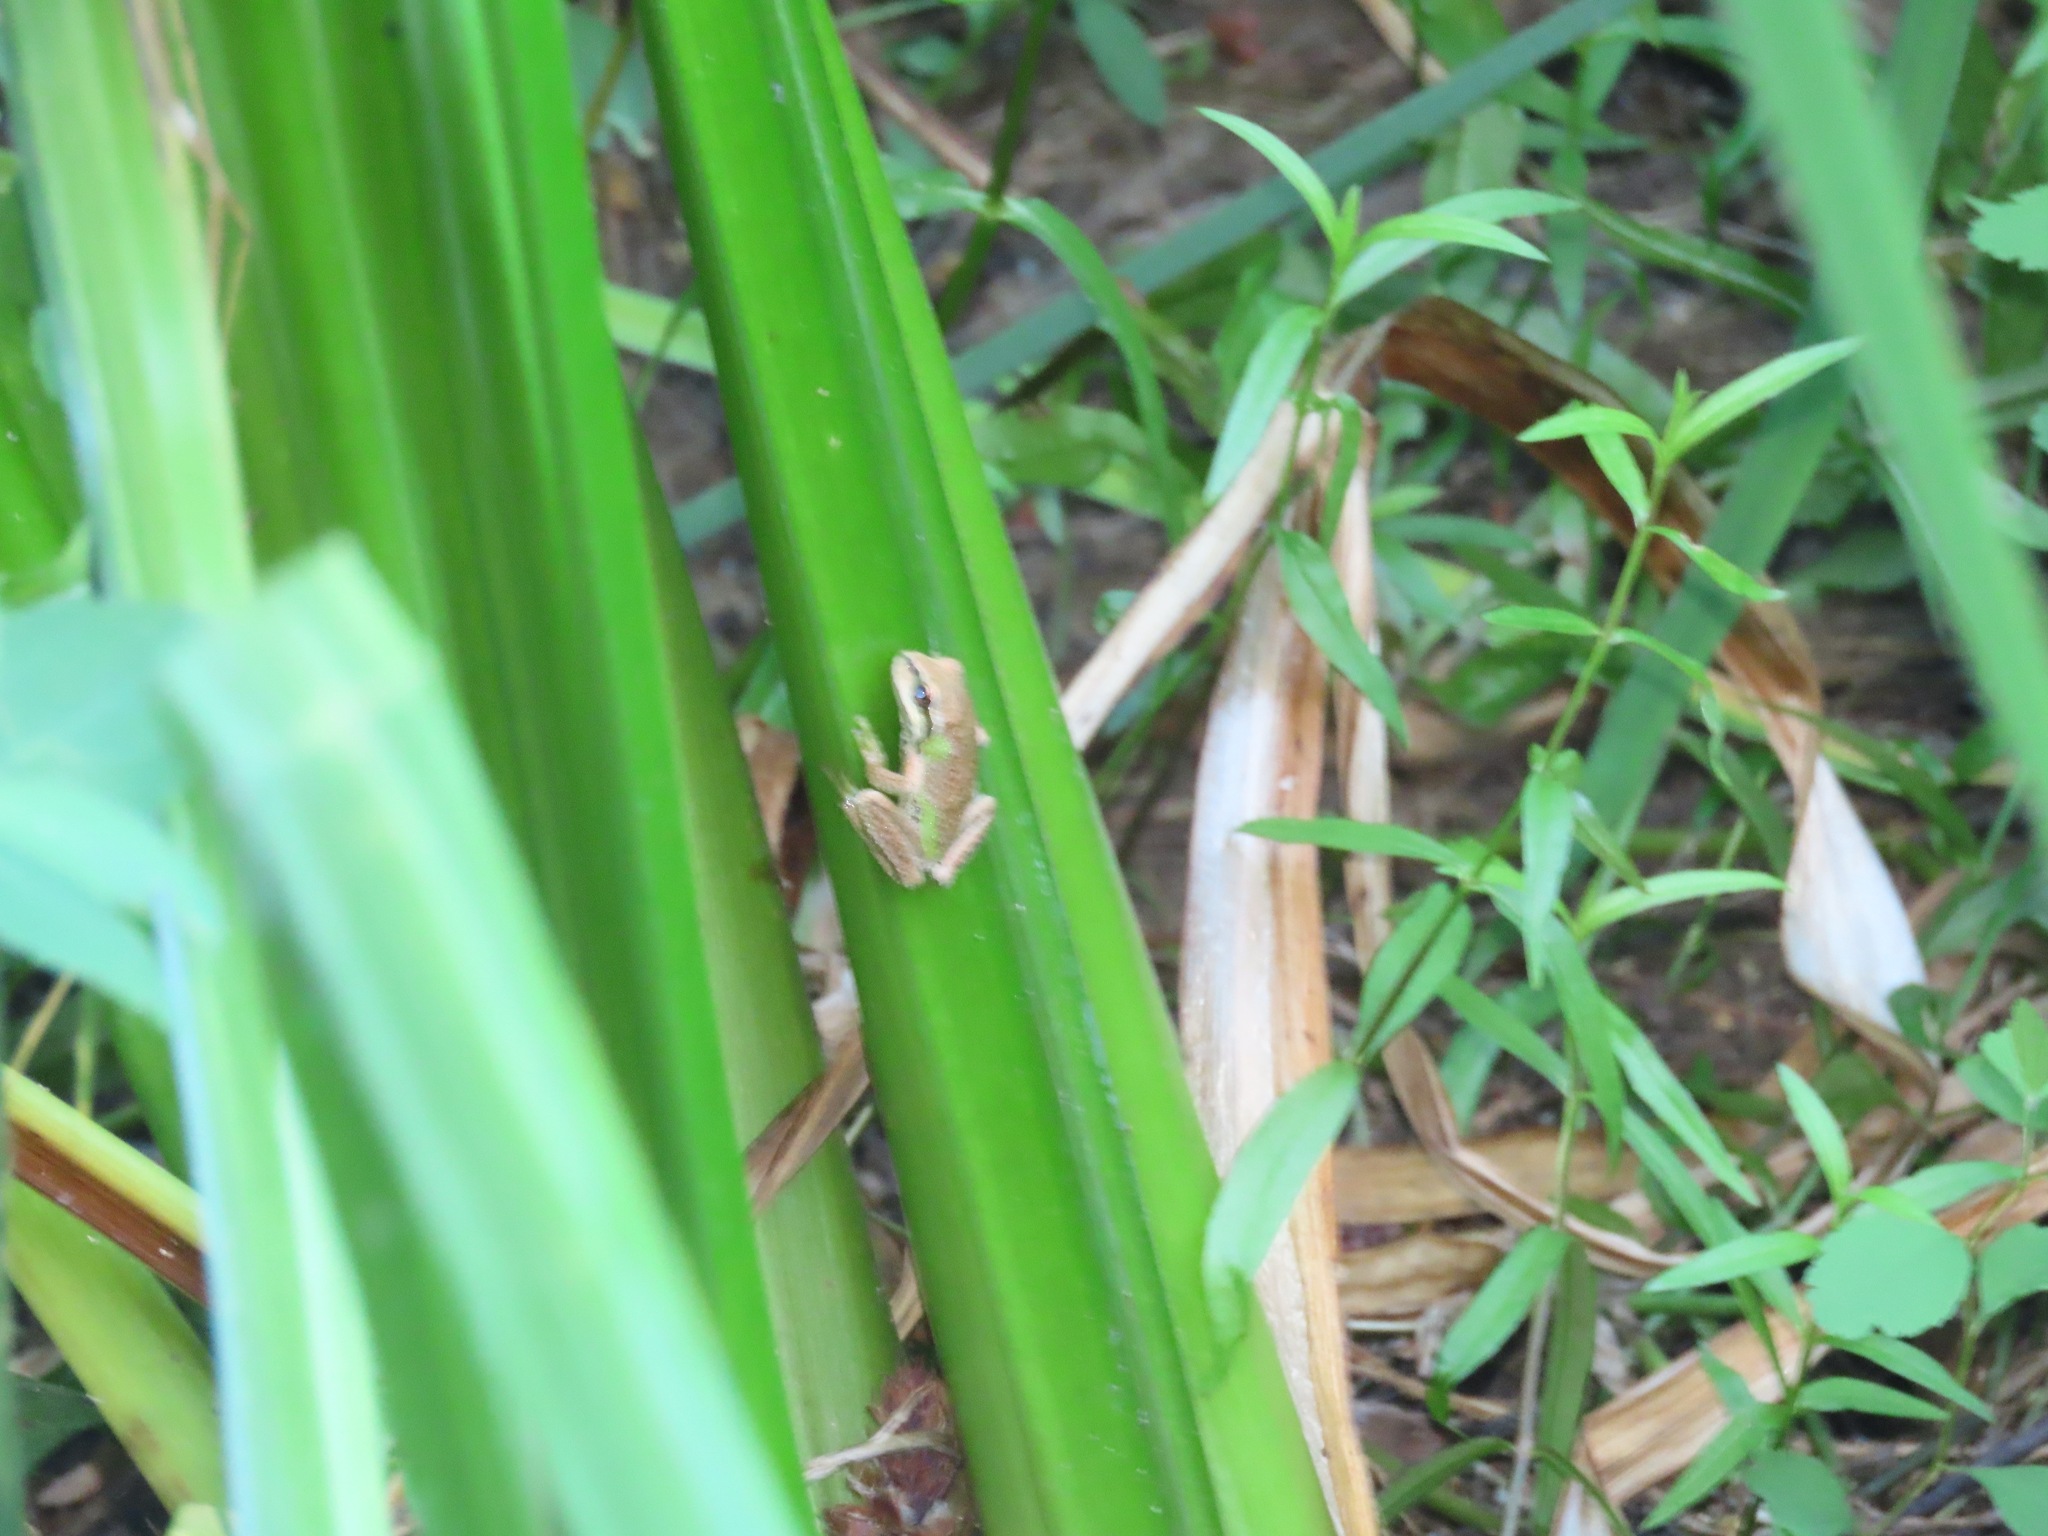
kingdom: Animalia
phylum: Chordata
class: Amphibia
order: Anura
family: Hylidae
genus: Pseudacris
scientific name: Pseudacris regilla
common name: Pacific chorus frog
